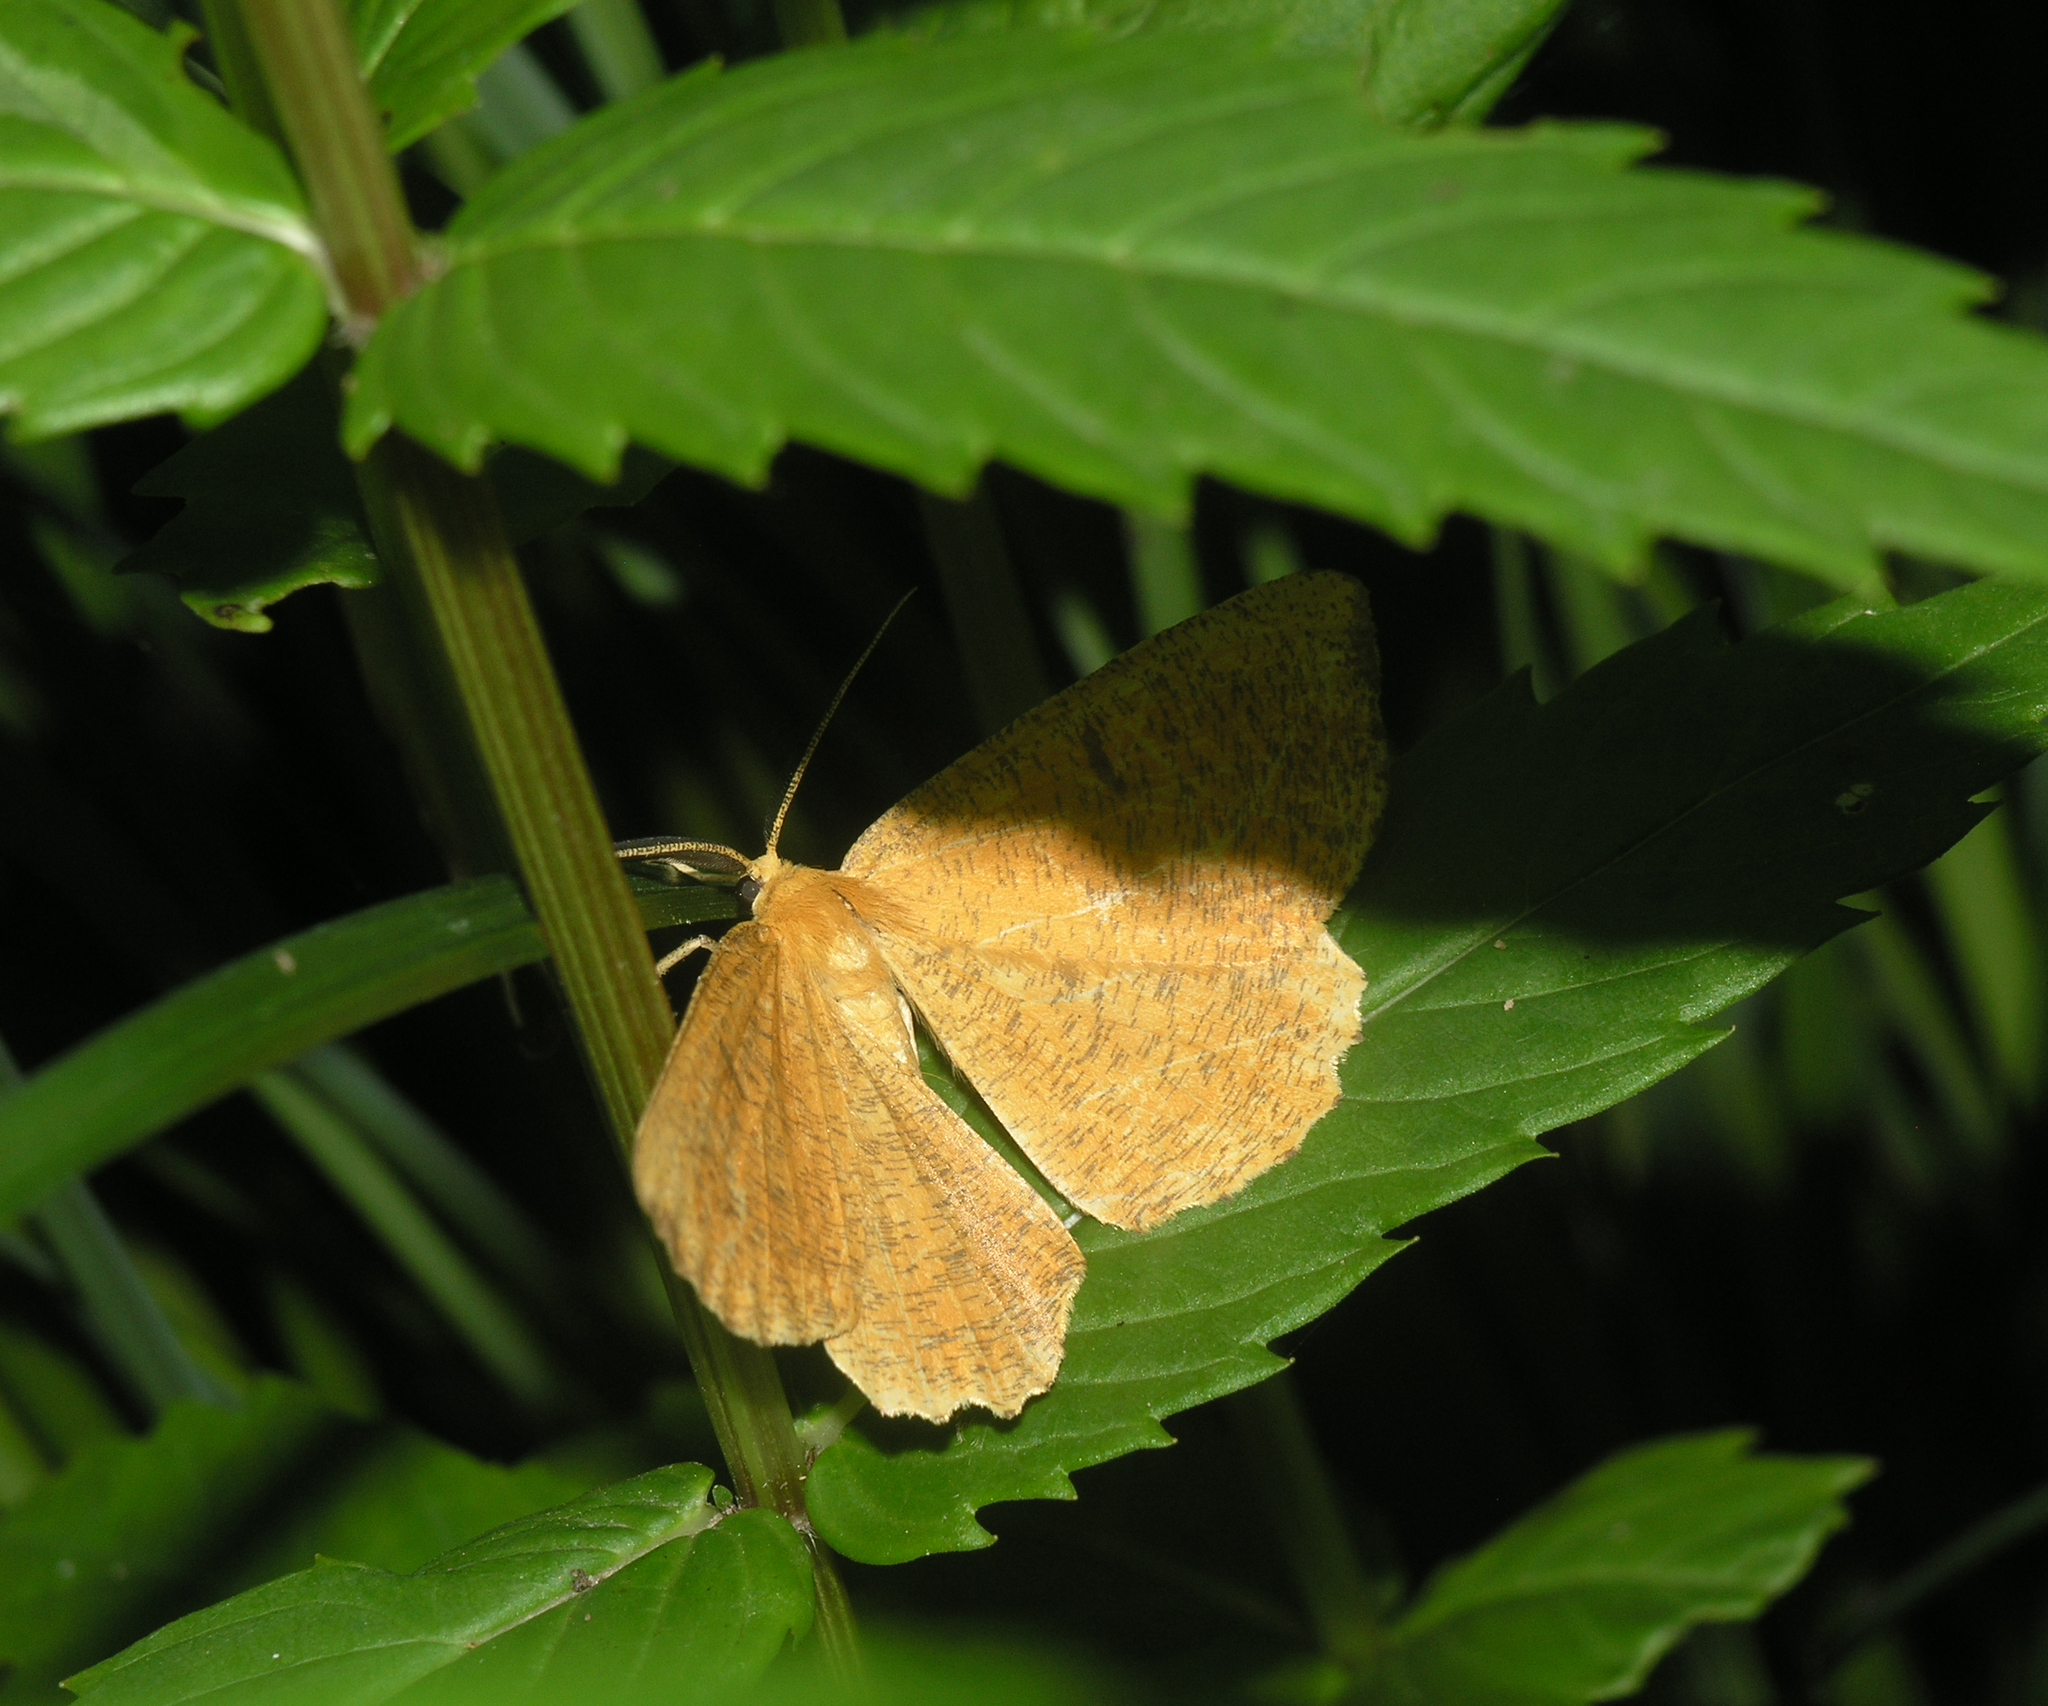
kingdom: Animalia
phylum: Arthropoda
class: Insecta
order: Lepidoptera
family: Geometridae
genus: Angerona
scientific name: Angerona prunaria
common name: Orange moth
